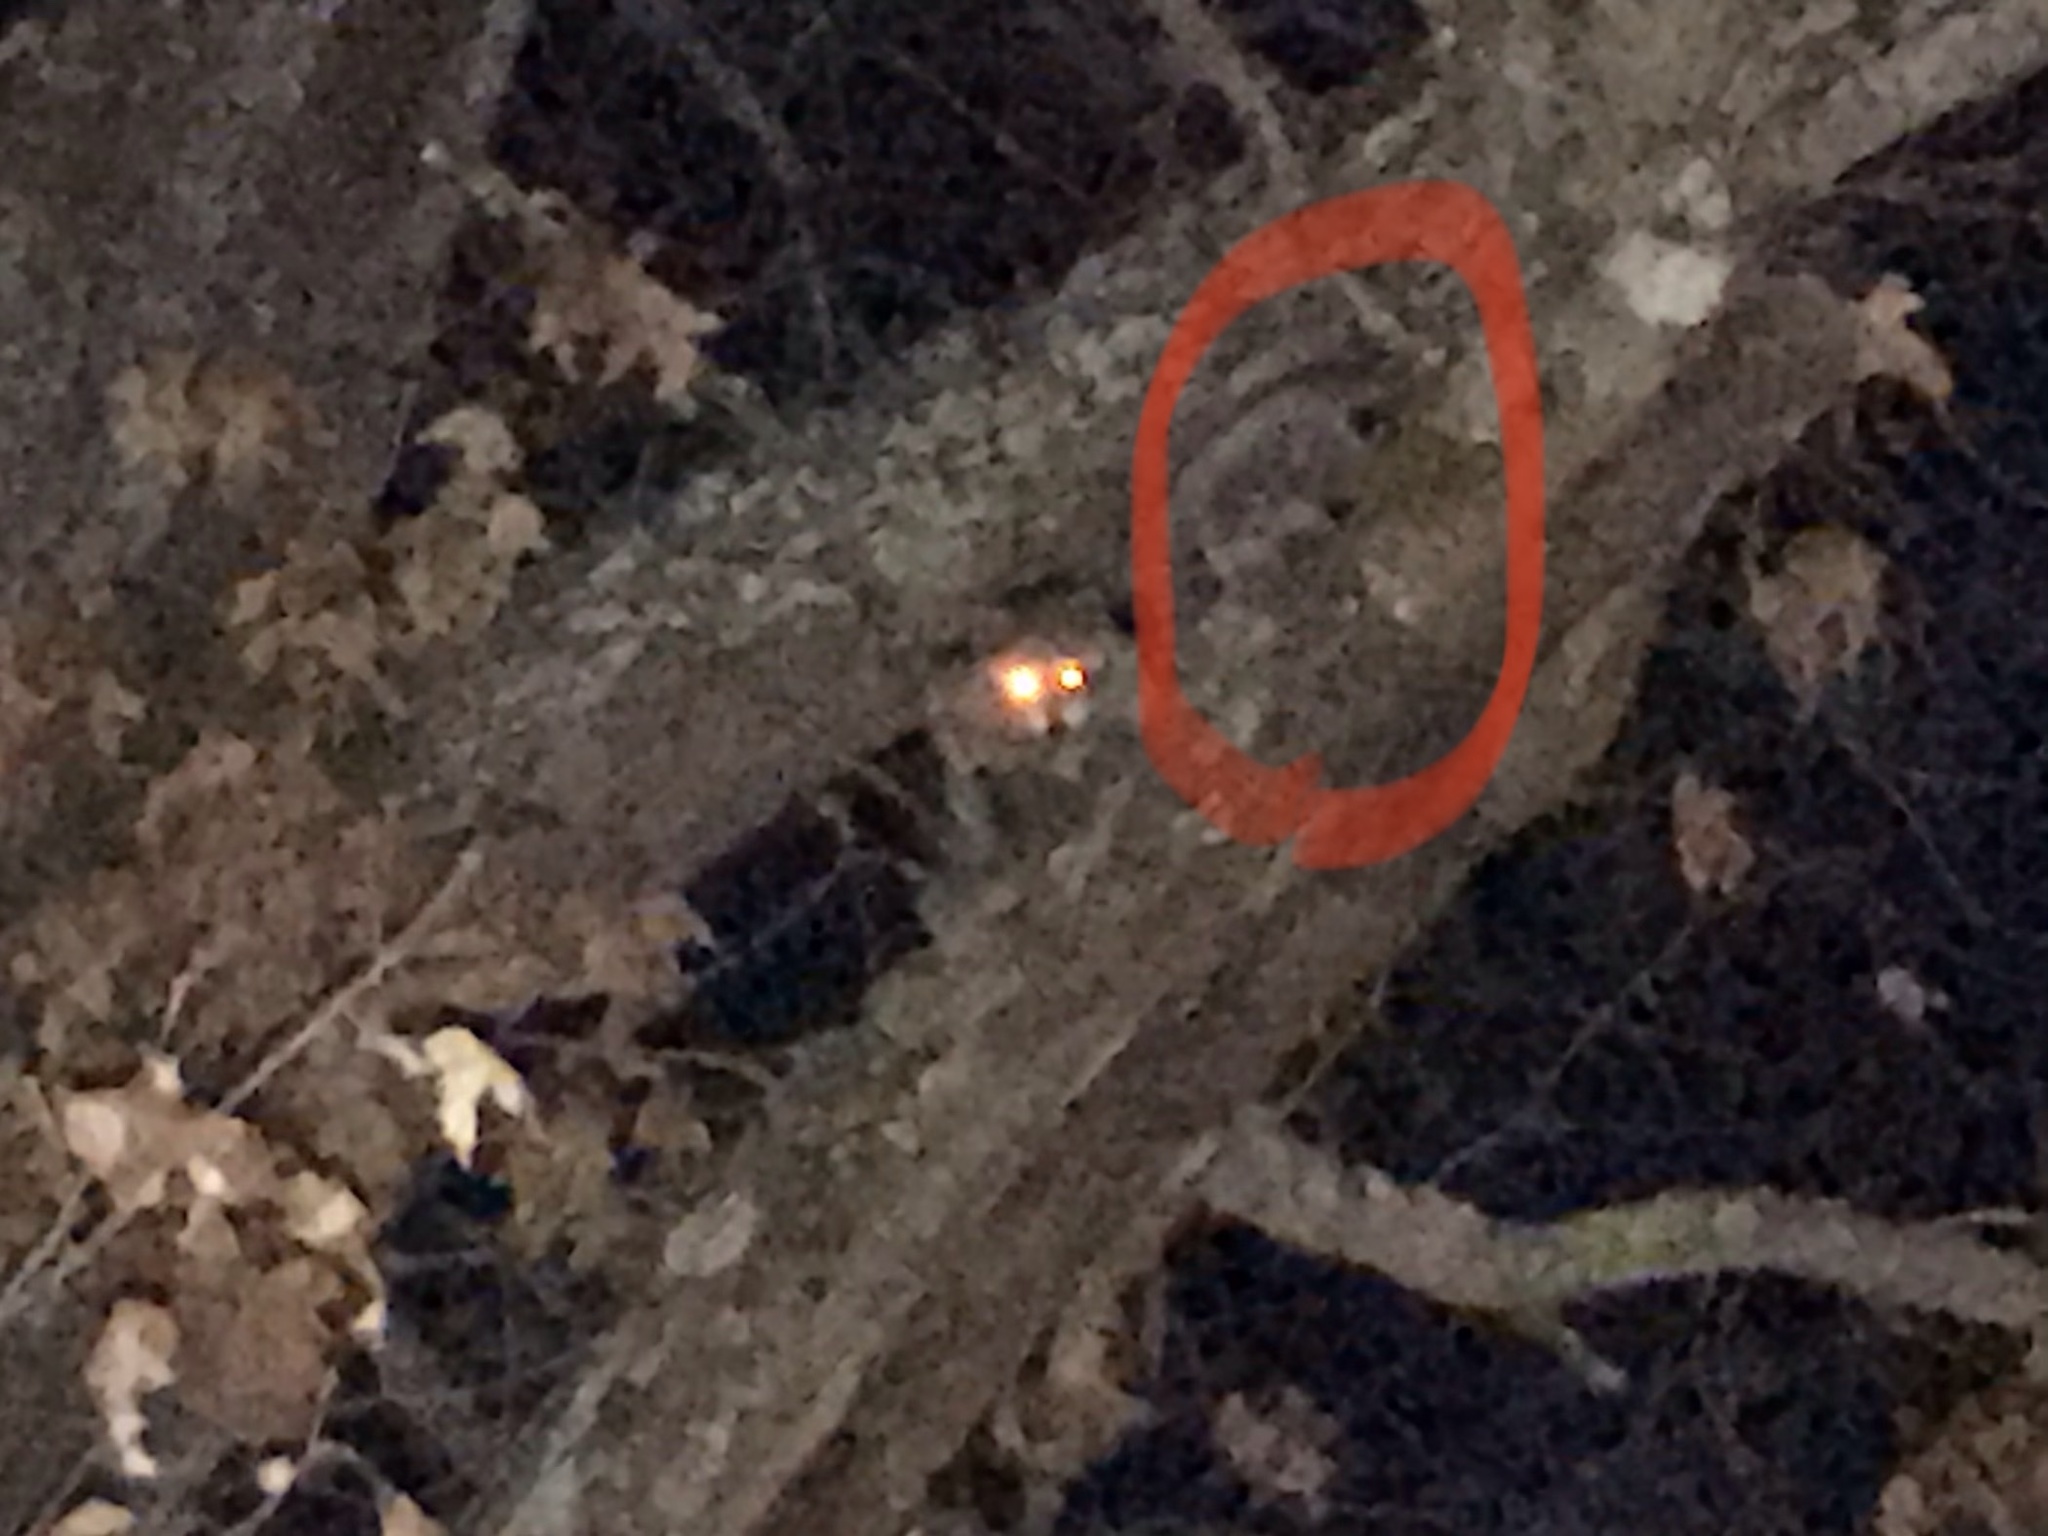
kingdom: Animalia
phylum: Chordata
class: Mammalia
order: Carnivora
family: Procyonidae
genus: Procyon
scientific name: Procyon lotor
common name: Raccoon
